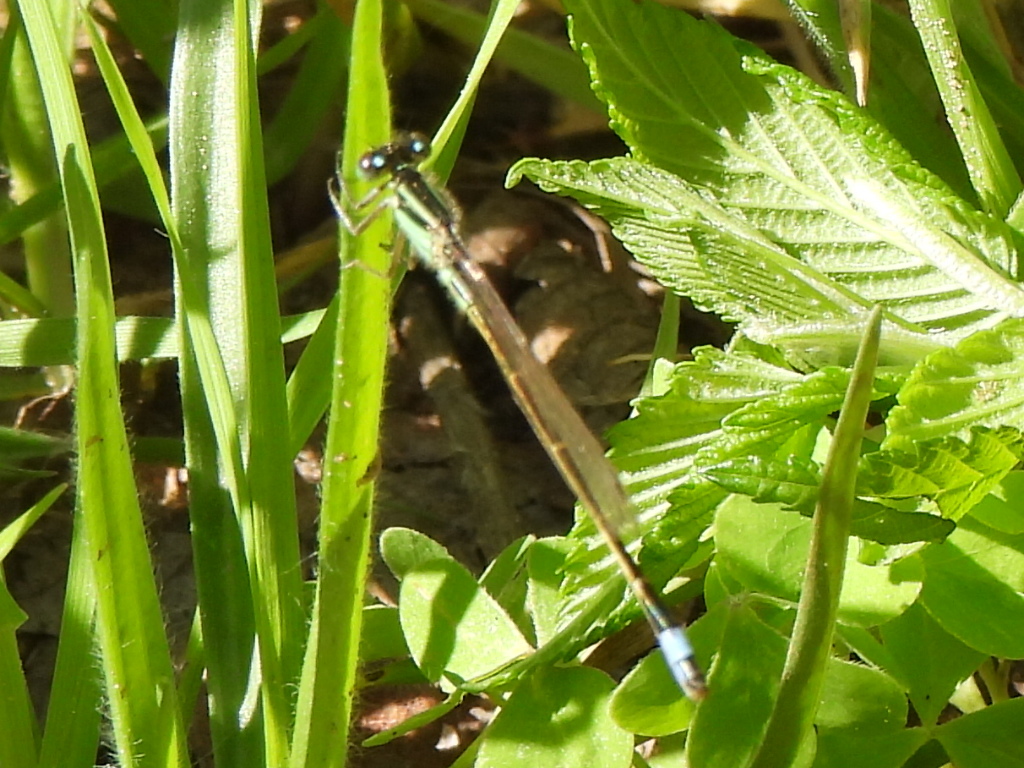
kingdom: Animalia
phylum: Arthropoda
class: Insecta
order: Odonata
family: Coenagrionidae
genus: Ischnura
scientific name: Ischnura ramburii
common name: Rambur's forktail
